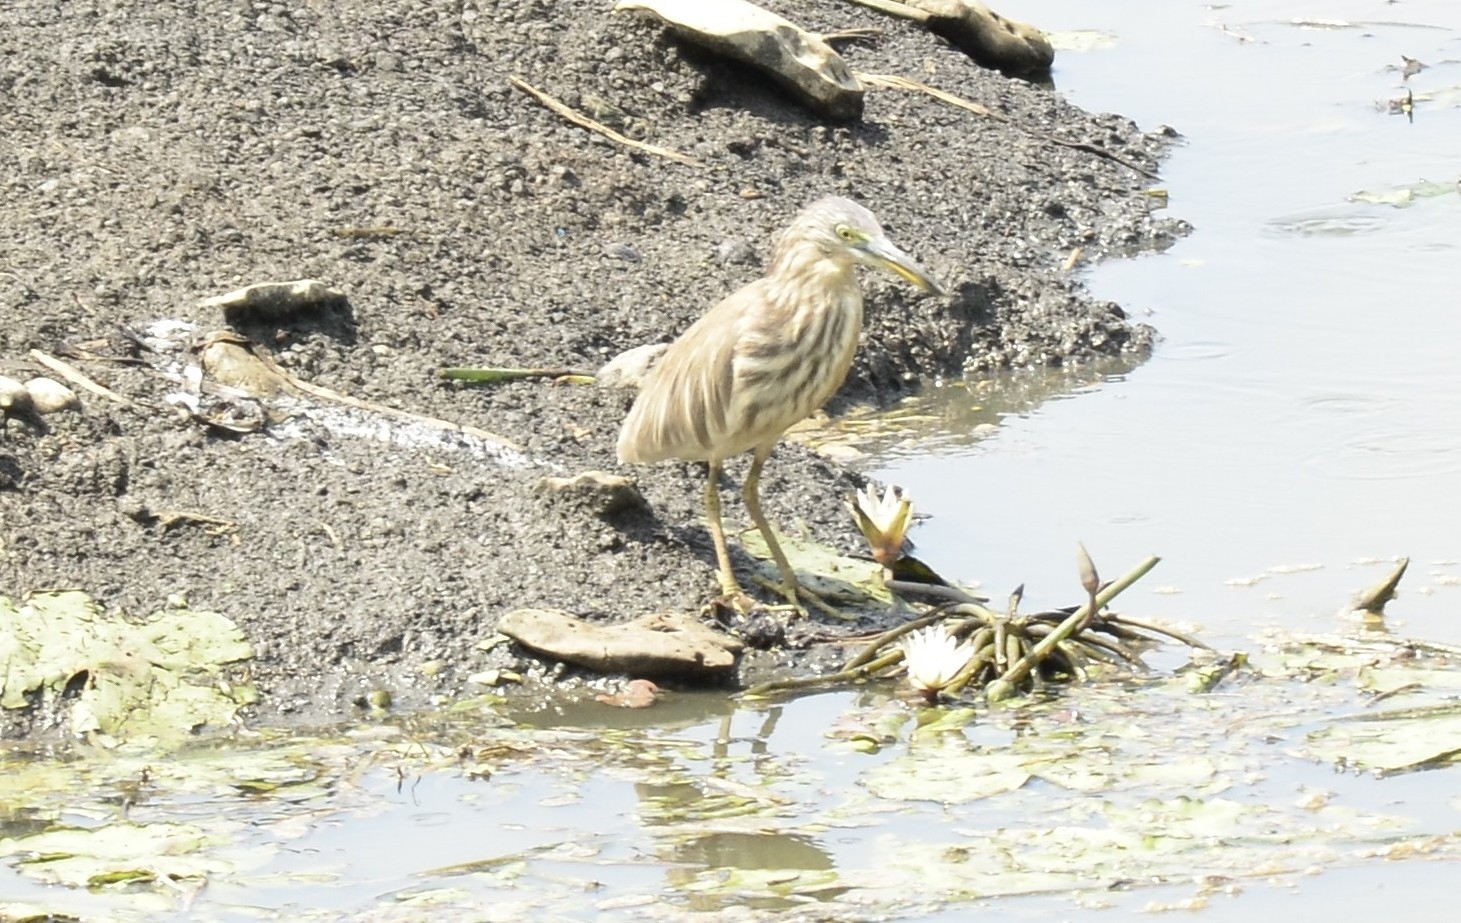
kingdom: Animalia
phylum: Chordata
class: Aves
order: Pelecaniformes
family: Ardeidae
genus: Ardeola
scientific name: Ardeola grayii
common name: Indian pond heron
